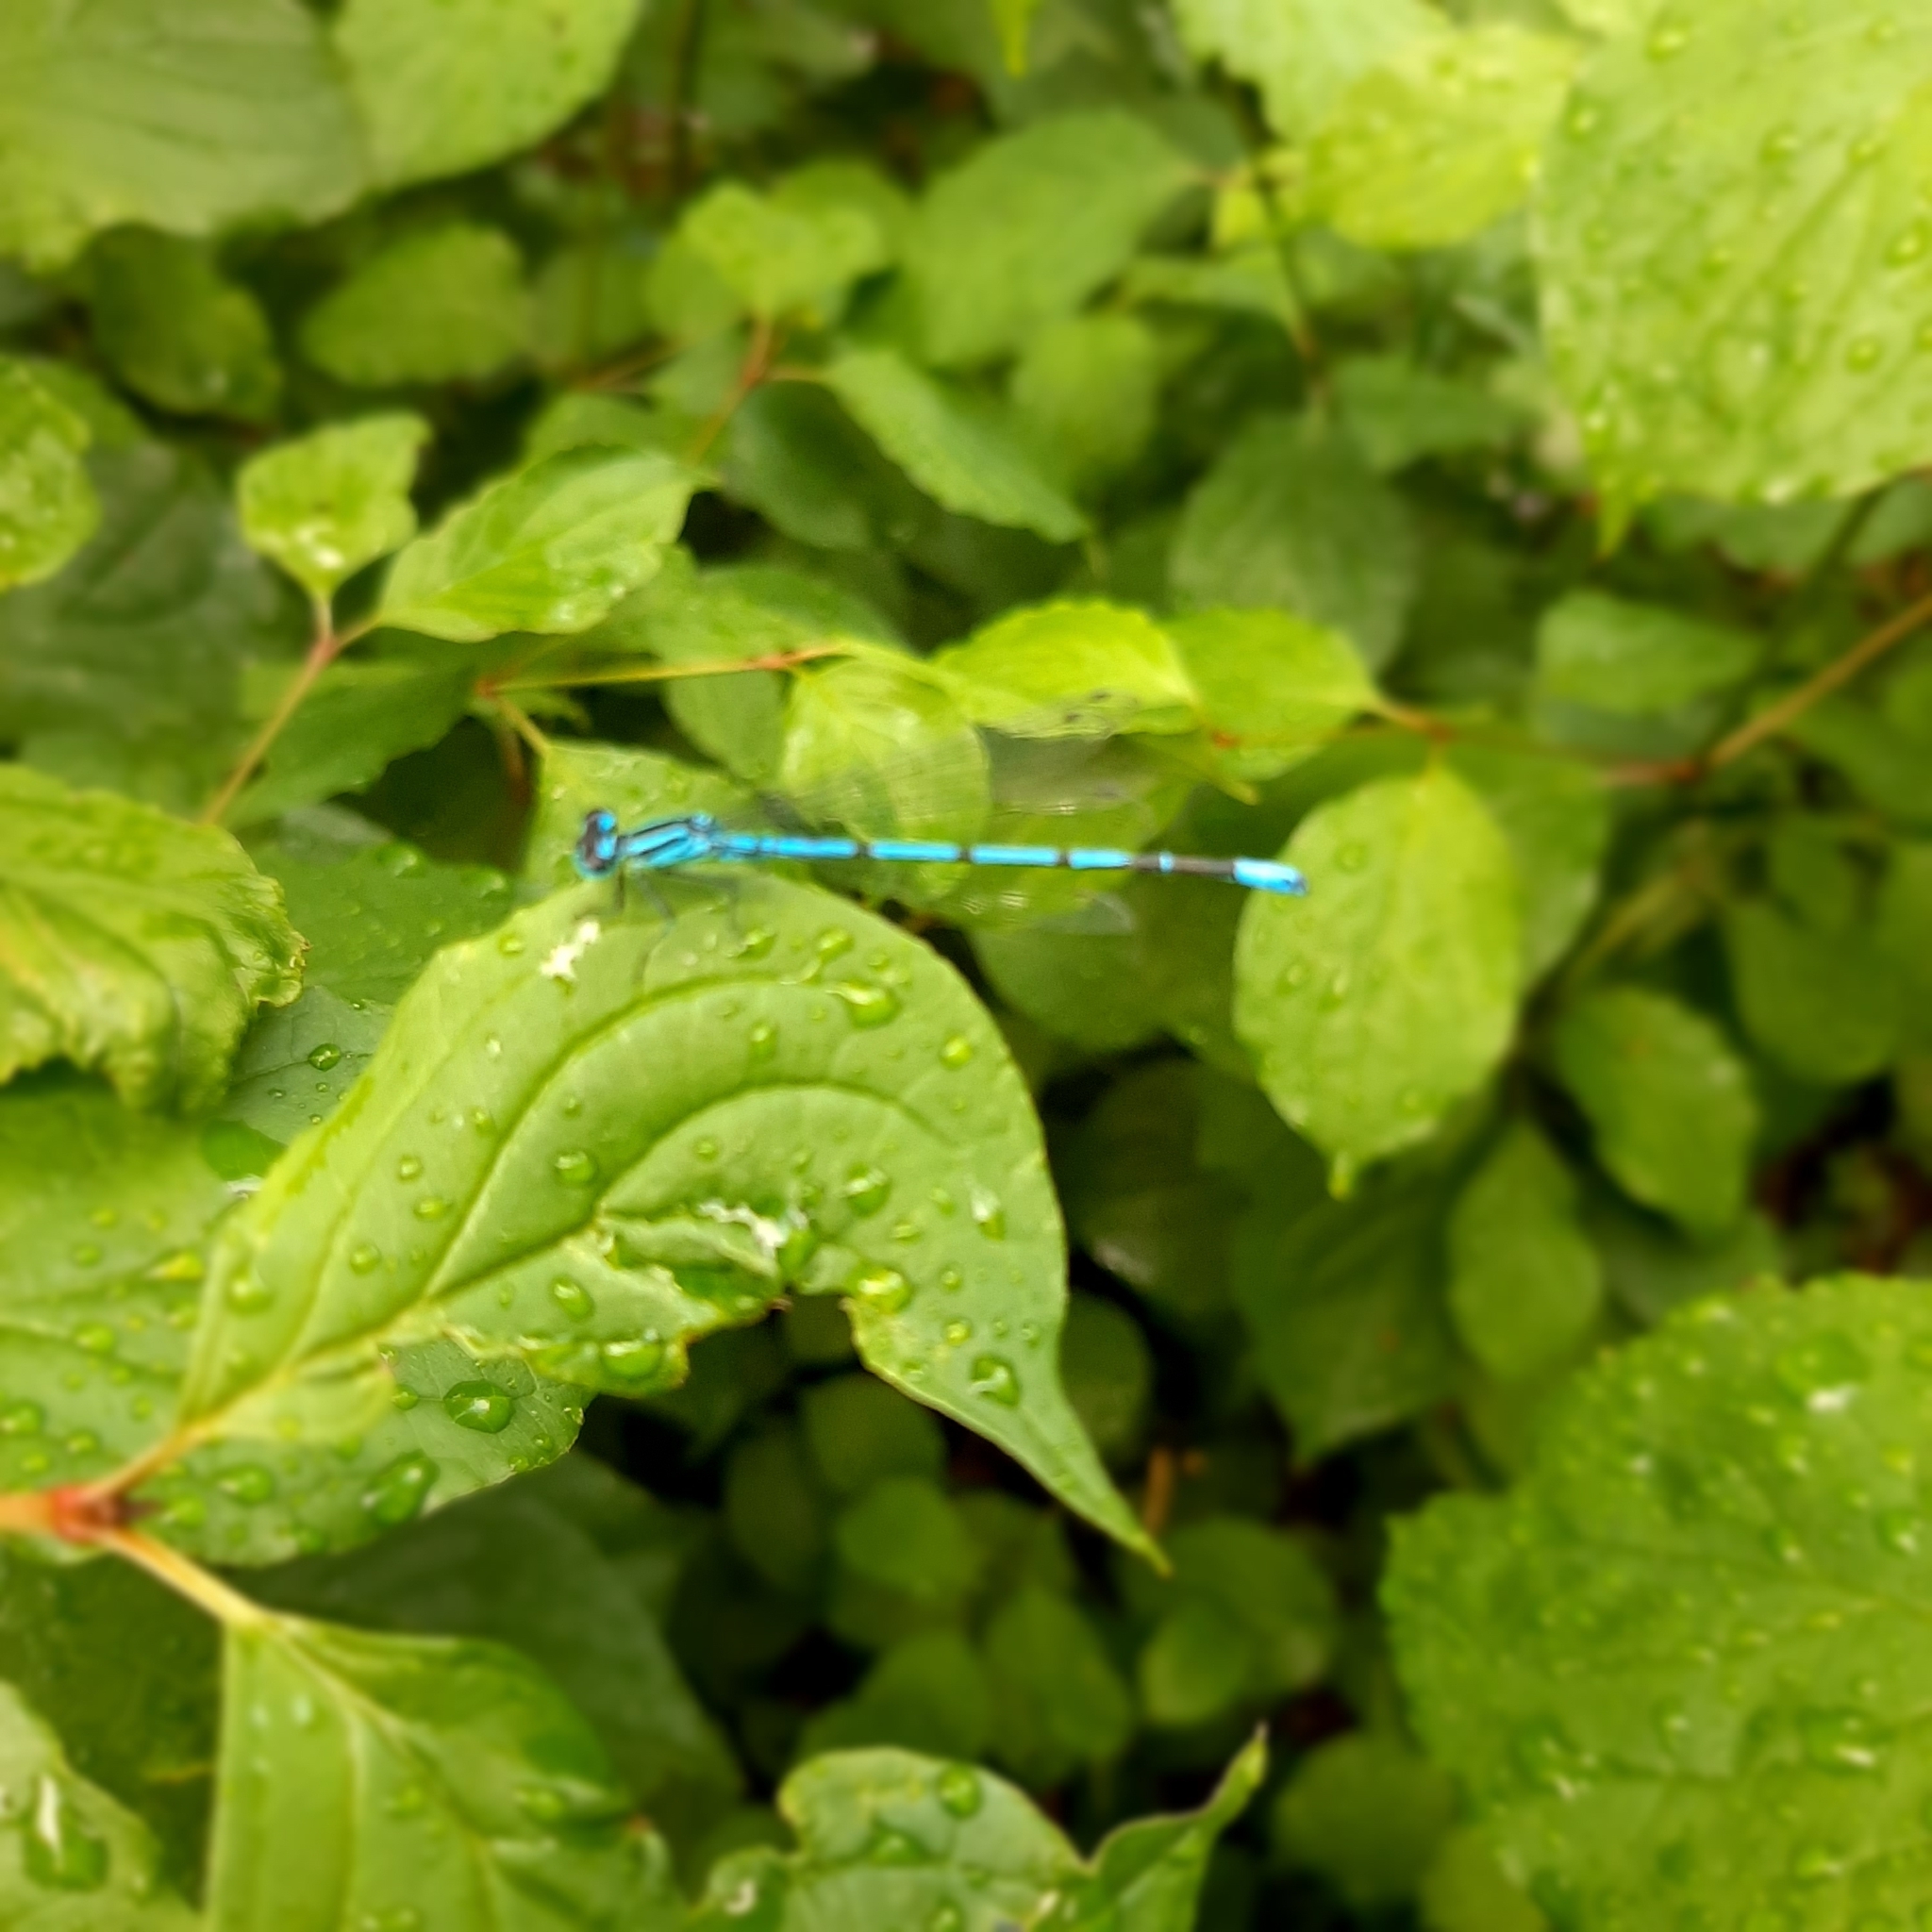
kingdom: Animalia
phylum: Arthropoda
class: Insecta
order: Odonata
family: Coenagrionidae
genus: Coenagrion
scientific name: Coenagrion puella
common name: Azure damselfly
